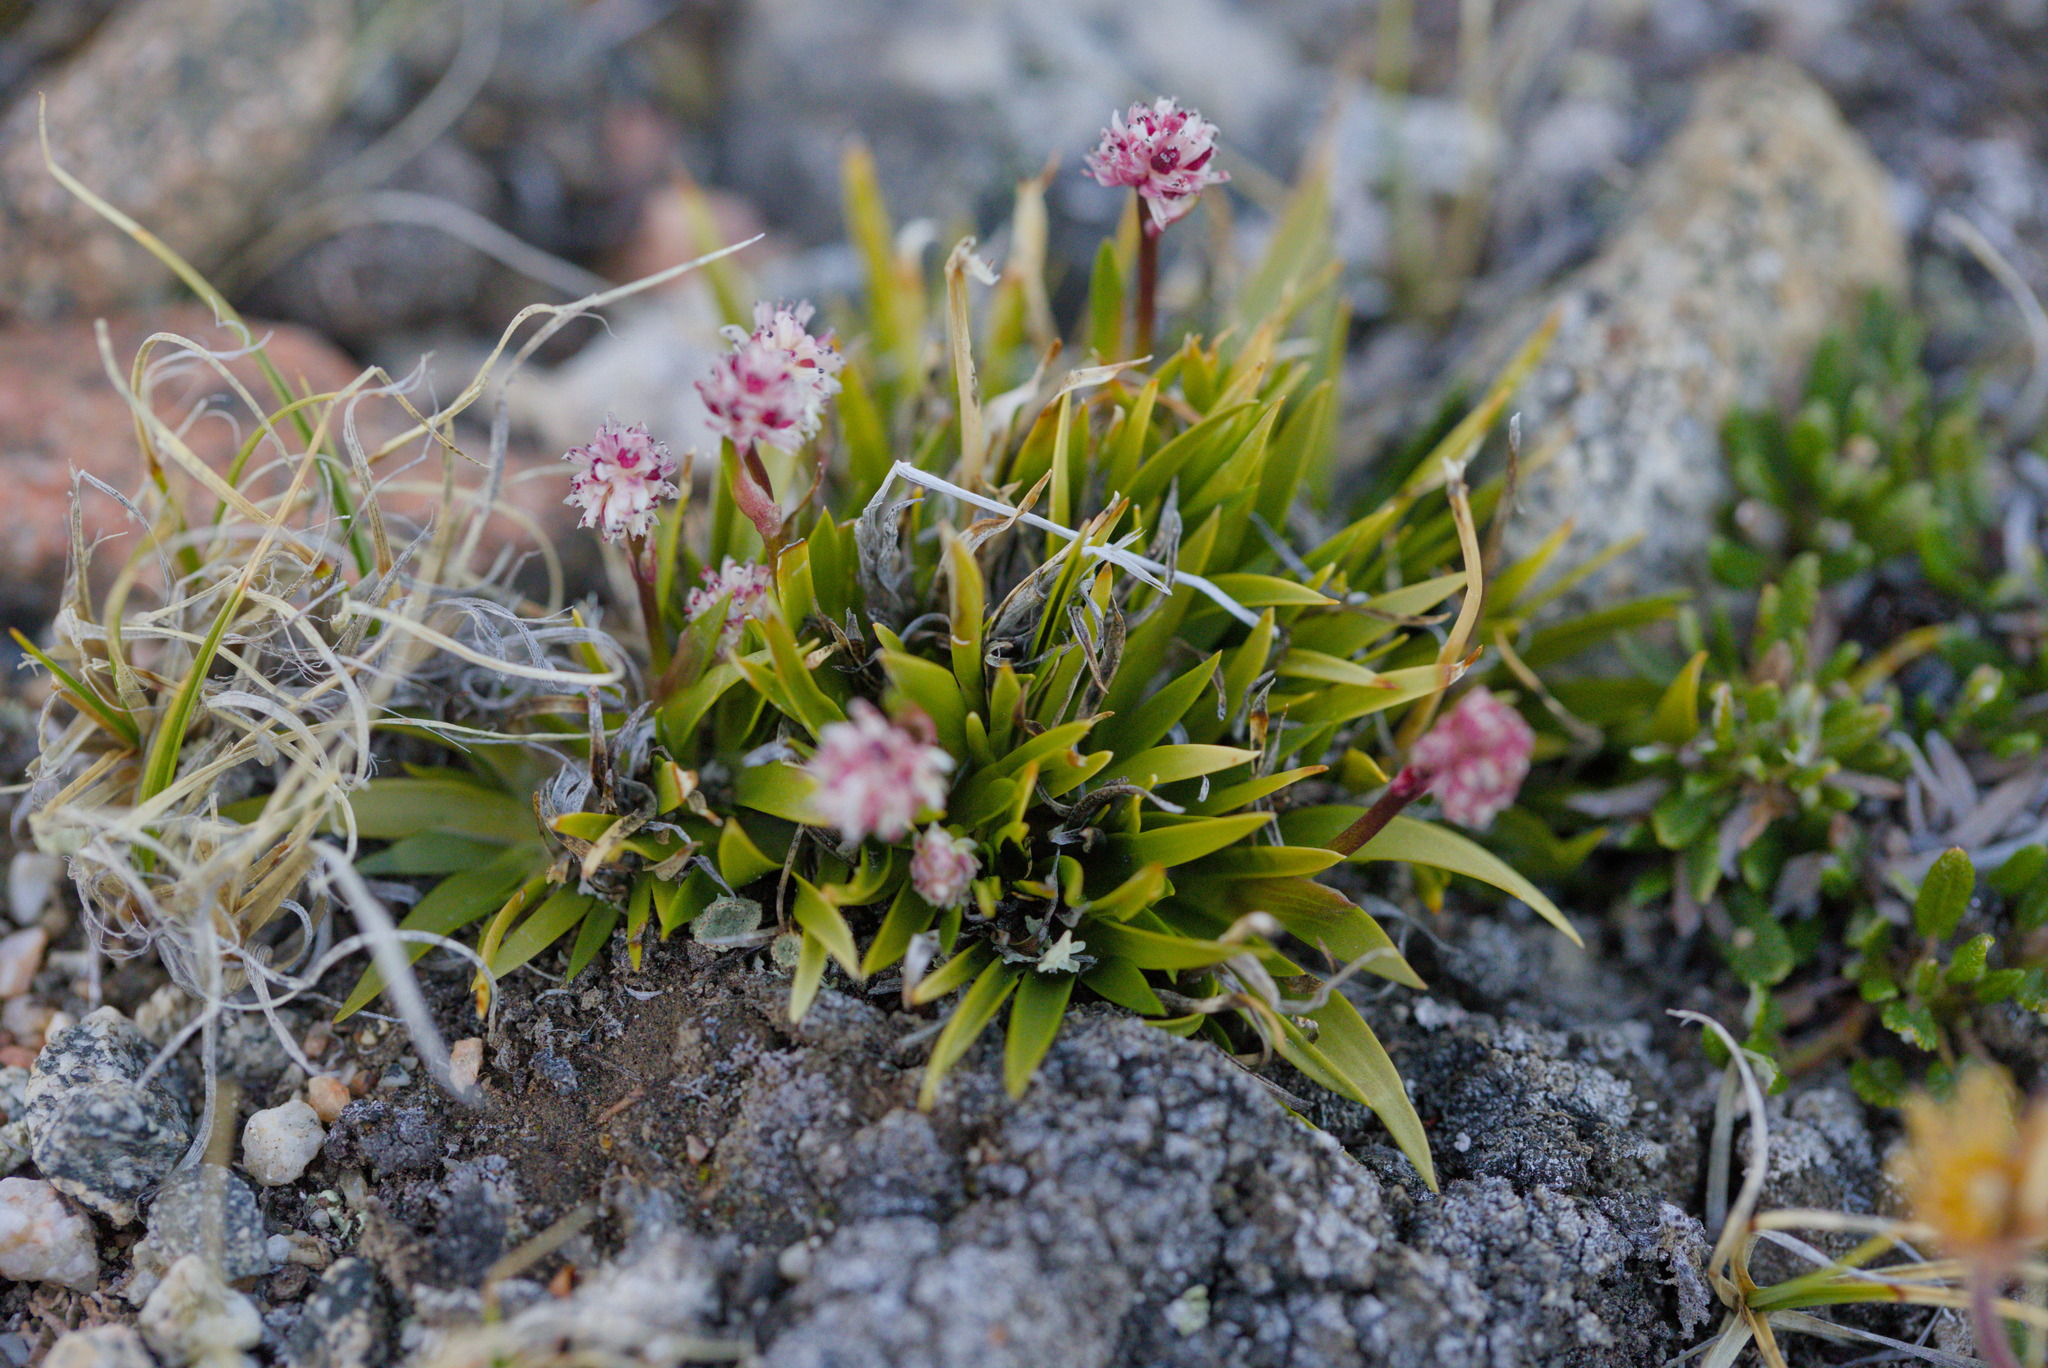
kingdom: Plantae
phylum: Tracheophyta
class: Liliopsida
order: Alismatales
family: Tofieldiaceae
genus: Tofieldia
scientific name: Tofieldia coccinea
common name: Northern false asphodel
